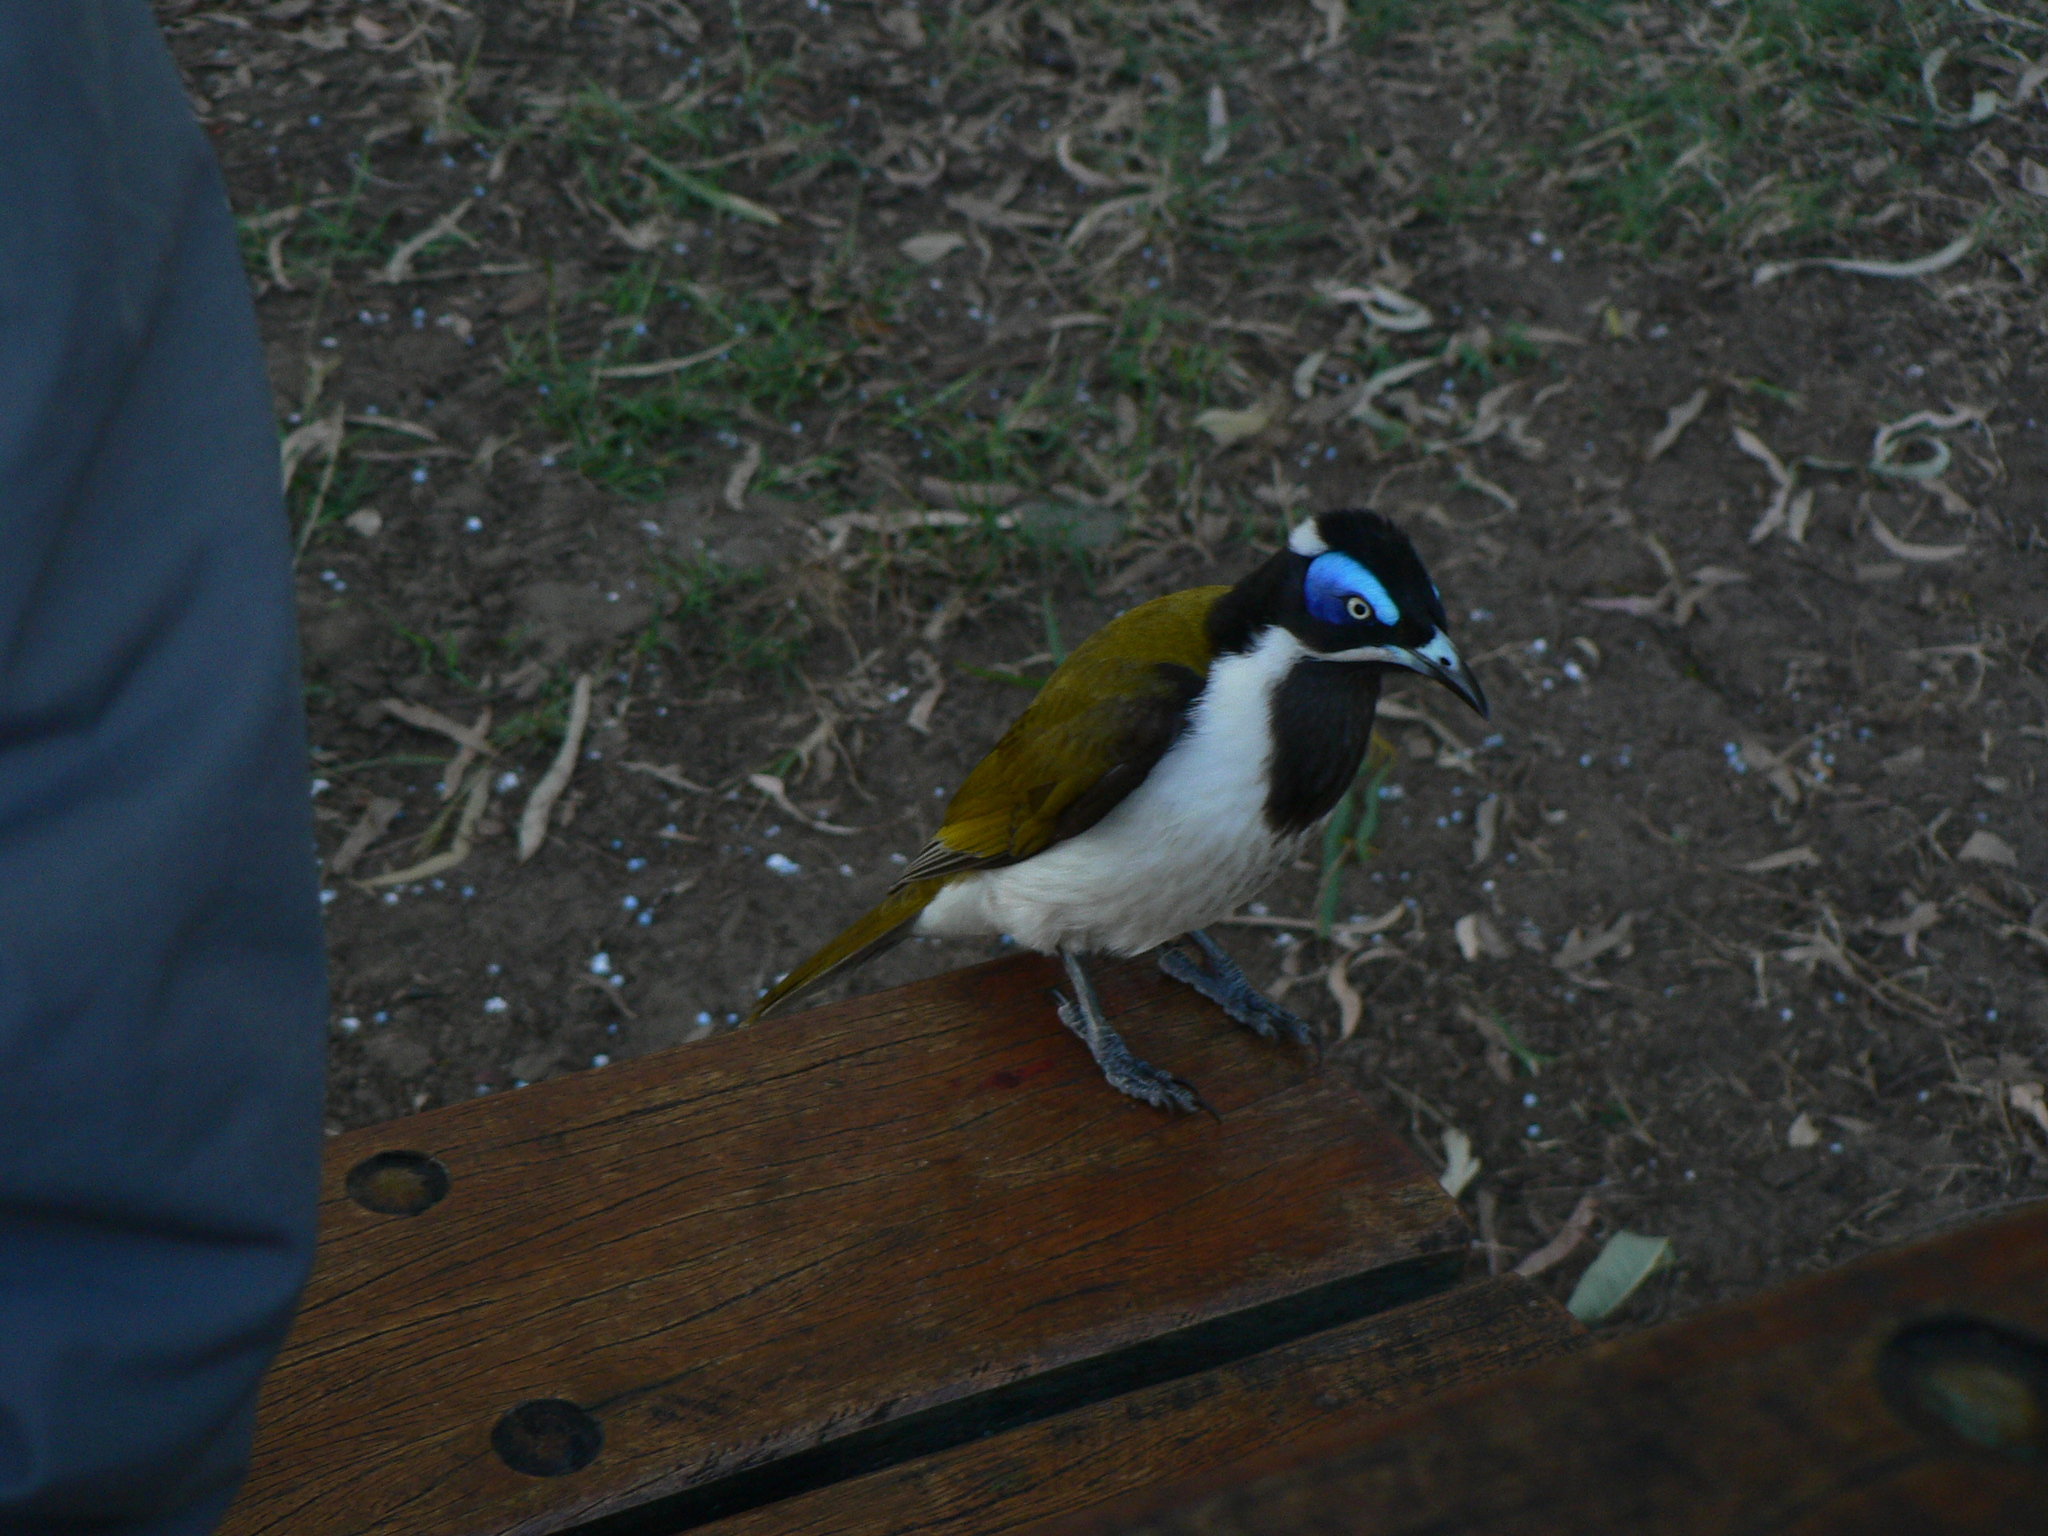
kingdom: Animalia
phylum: Chordata
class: Aves
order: Passeriformes
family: Meliphagidae
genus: Entomyzon
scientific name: Entomyzon cyanotis
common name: Blue-faced honeyeater
